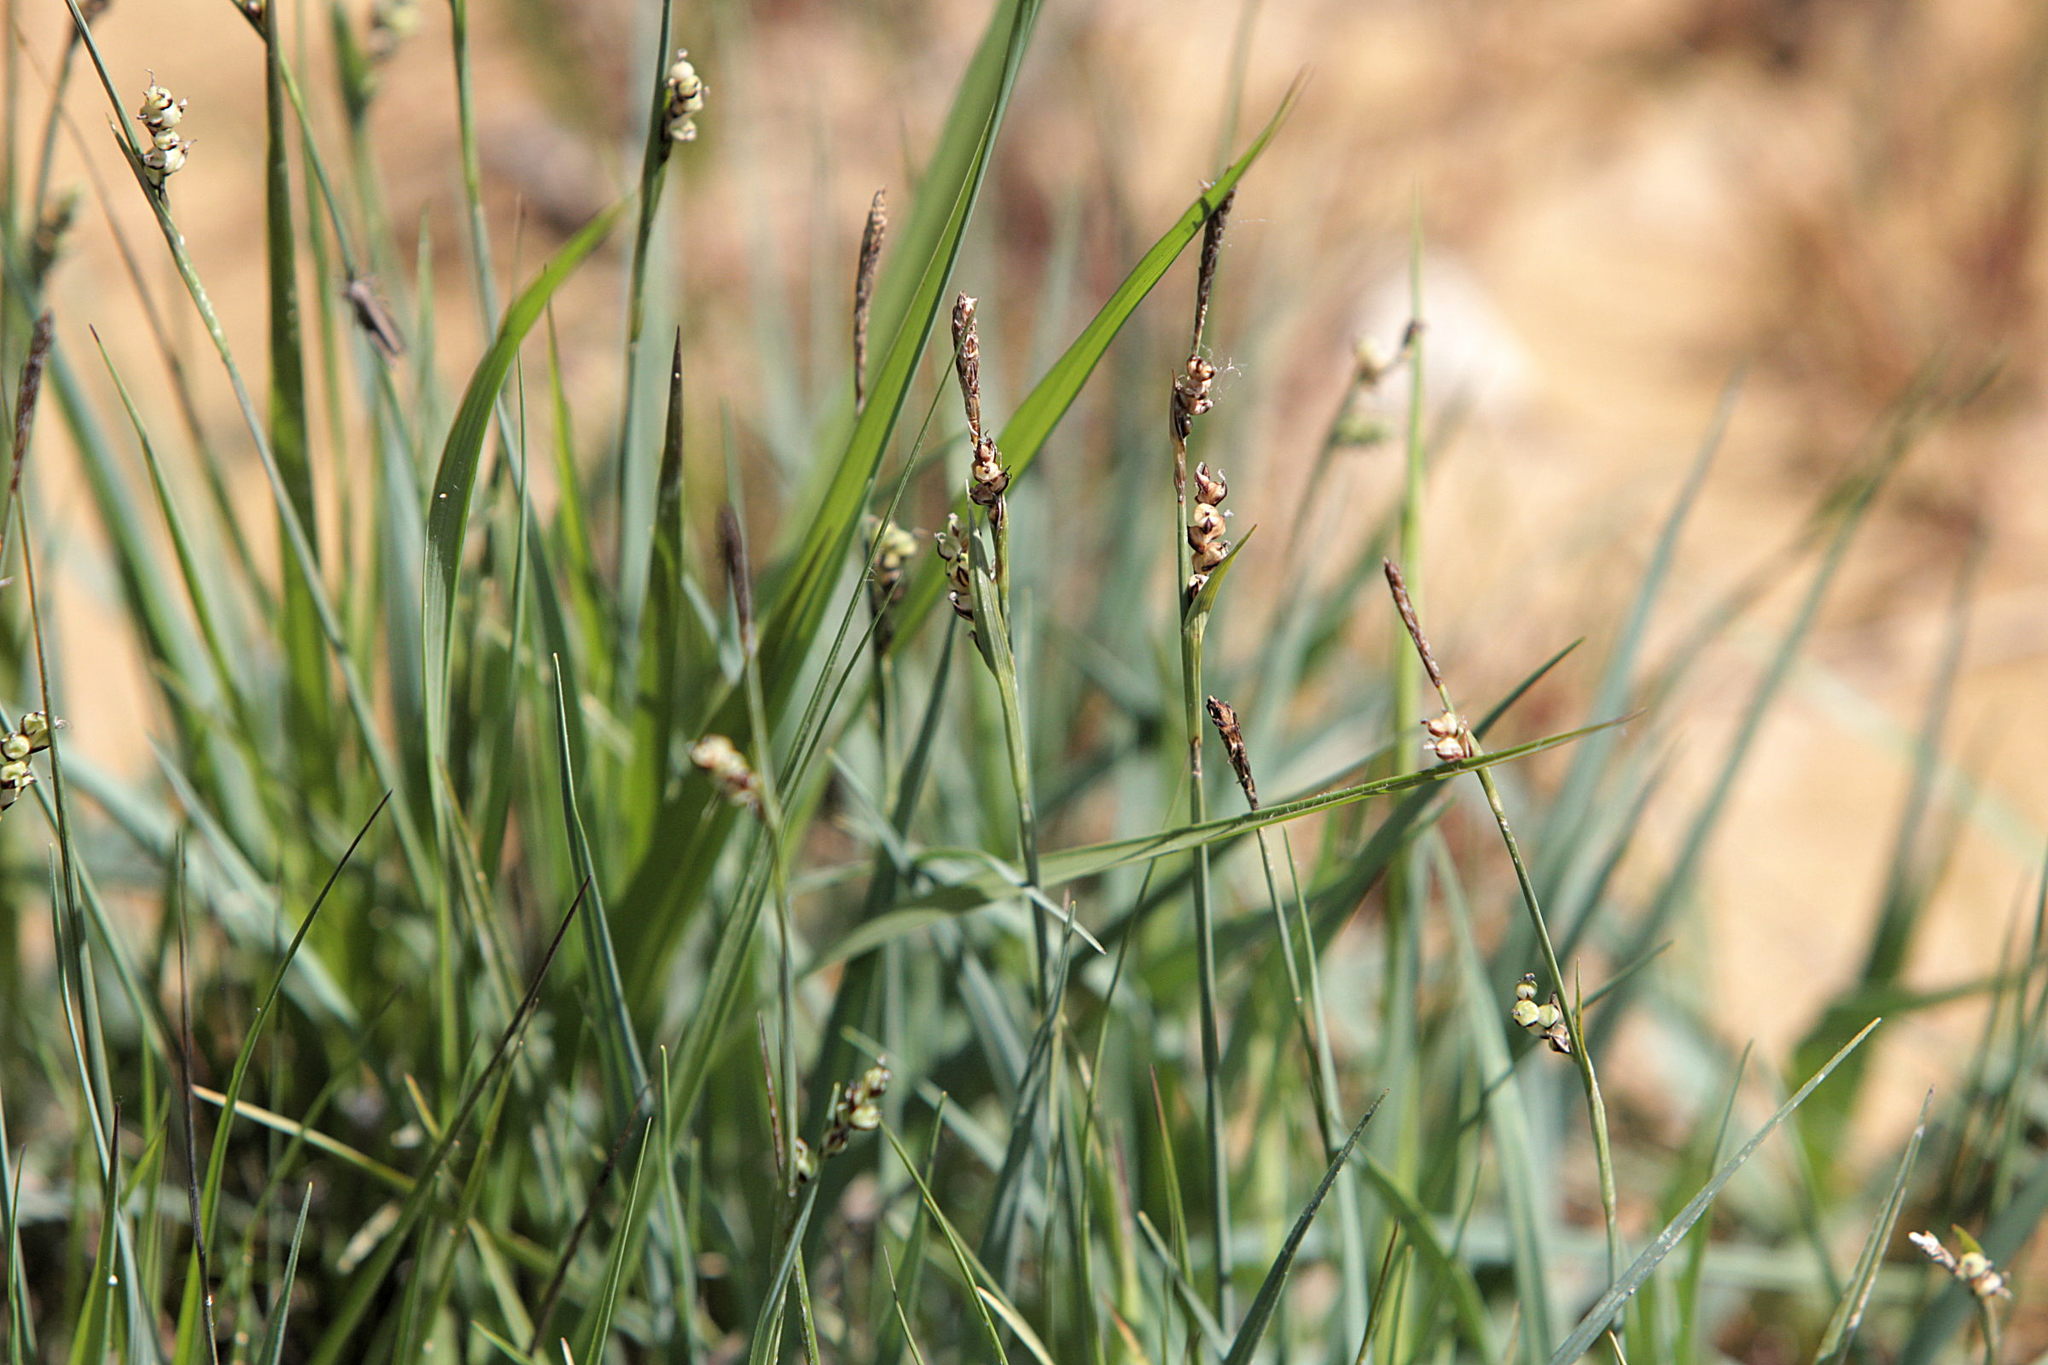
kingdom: Plantae
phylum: Tracheophyta
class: Liliopsida
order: Poales
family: Cyperaceae
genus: Carex
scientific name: Carex panicea
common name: Carnation sedge
